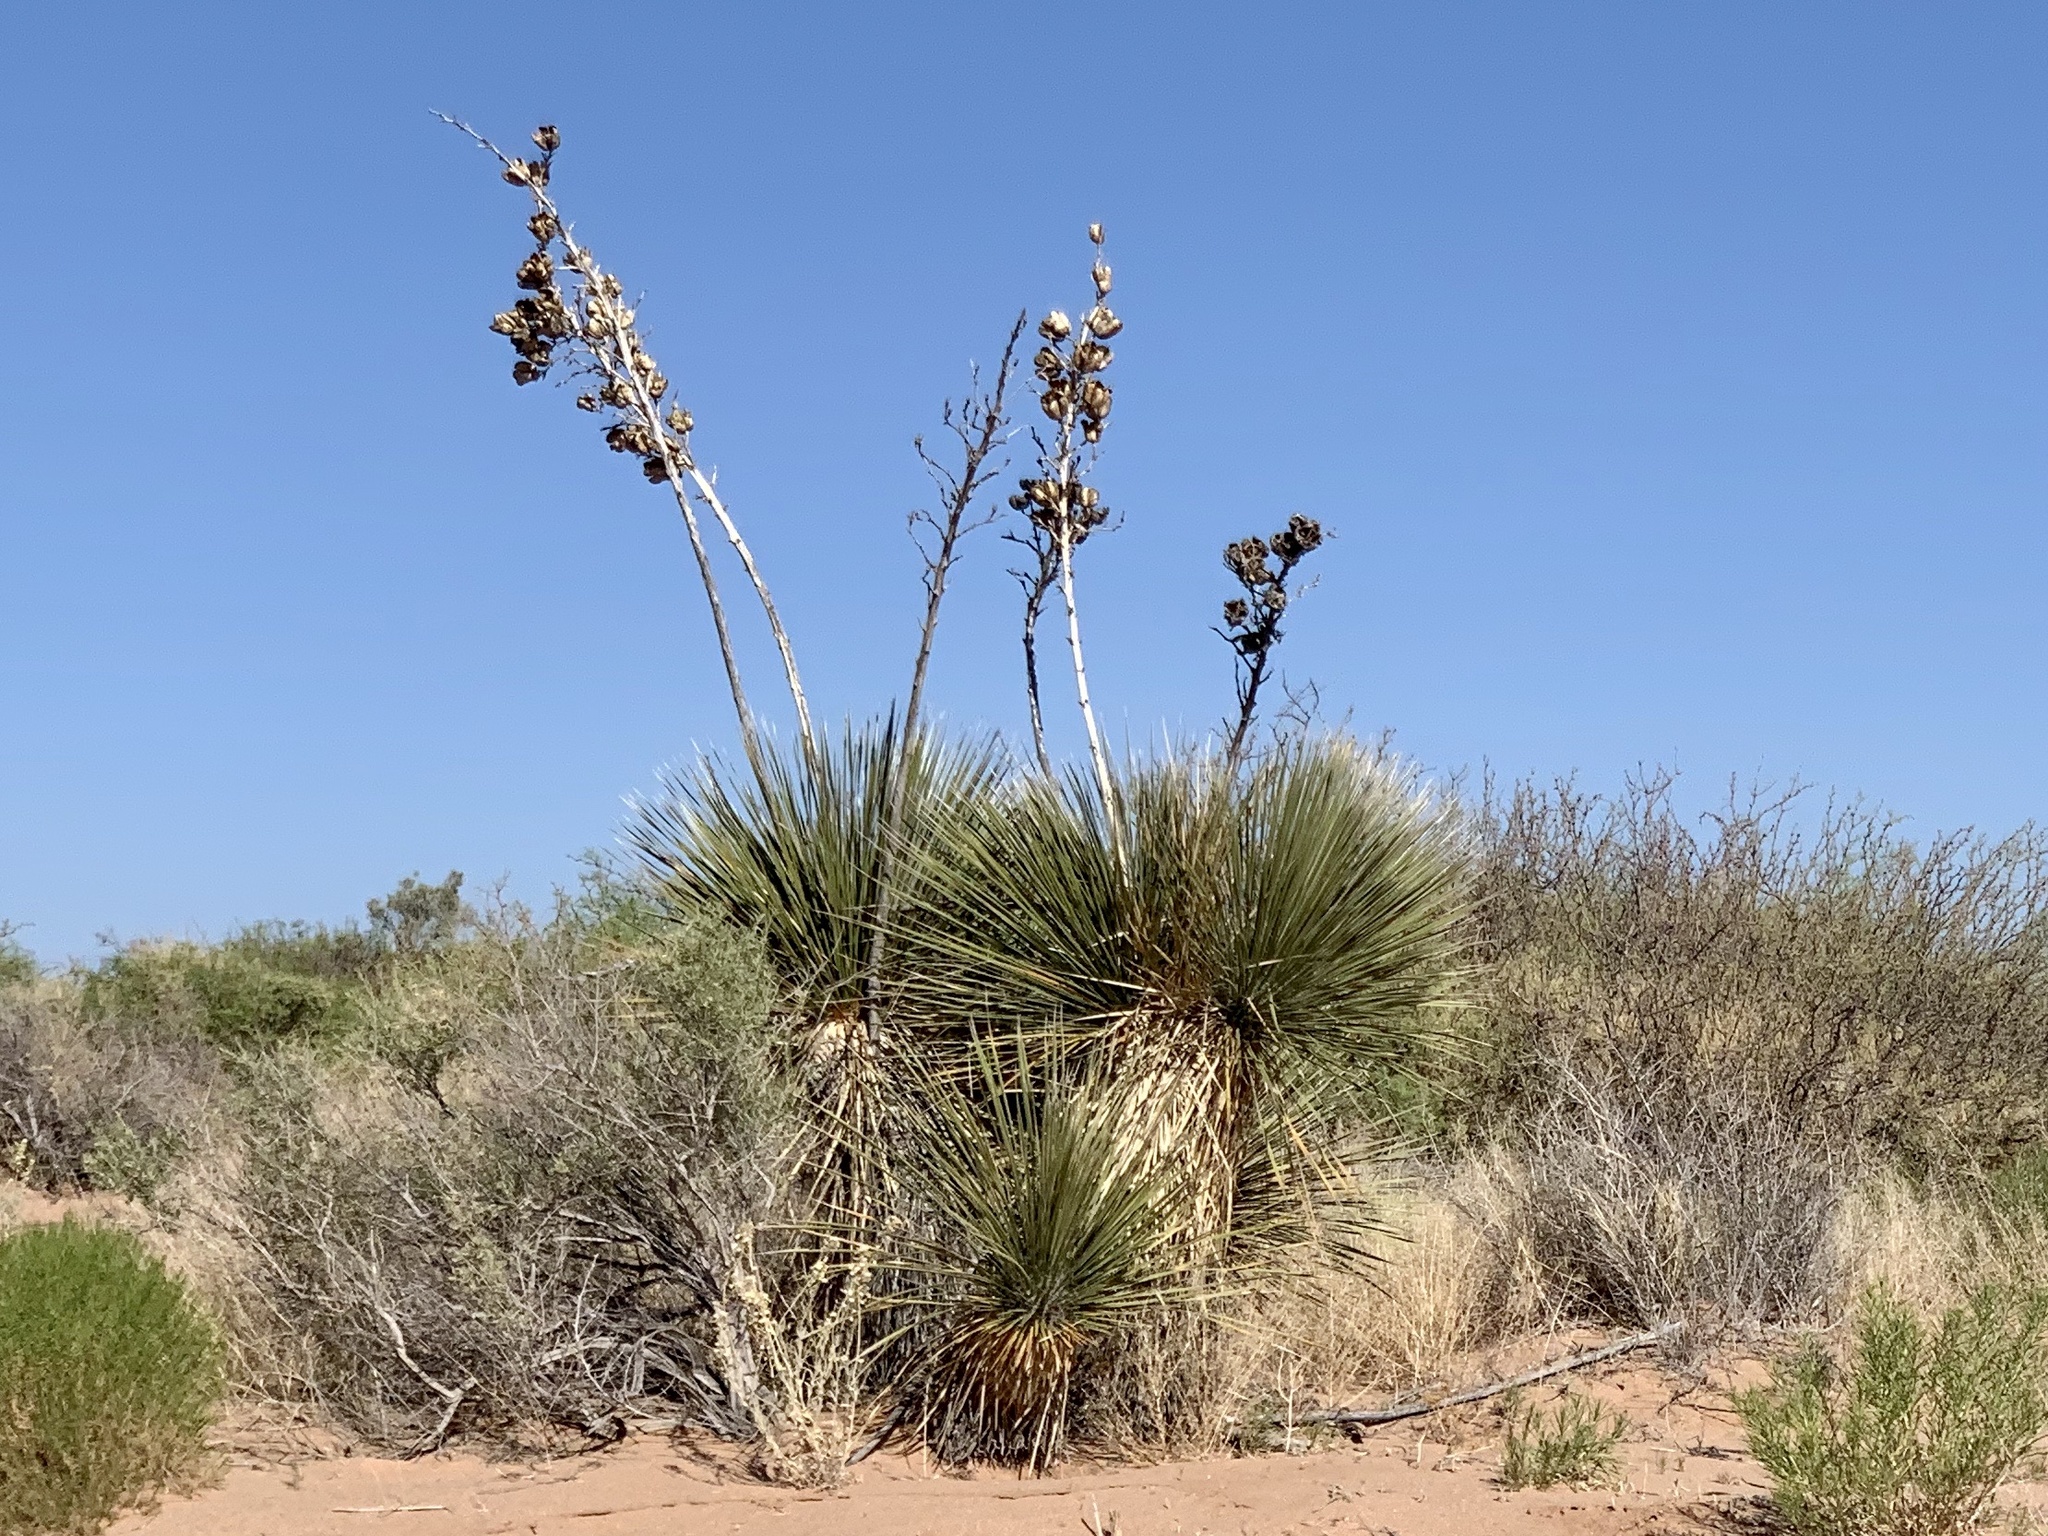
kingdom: Plantae
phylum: Tracheophyta
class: Liliopsida
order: Asparagales
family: Asparagaceae
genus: Yucca
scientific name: Yucca elata
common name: Palmella
